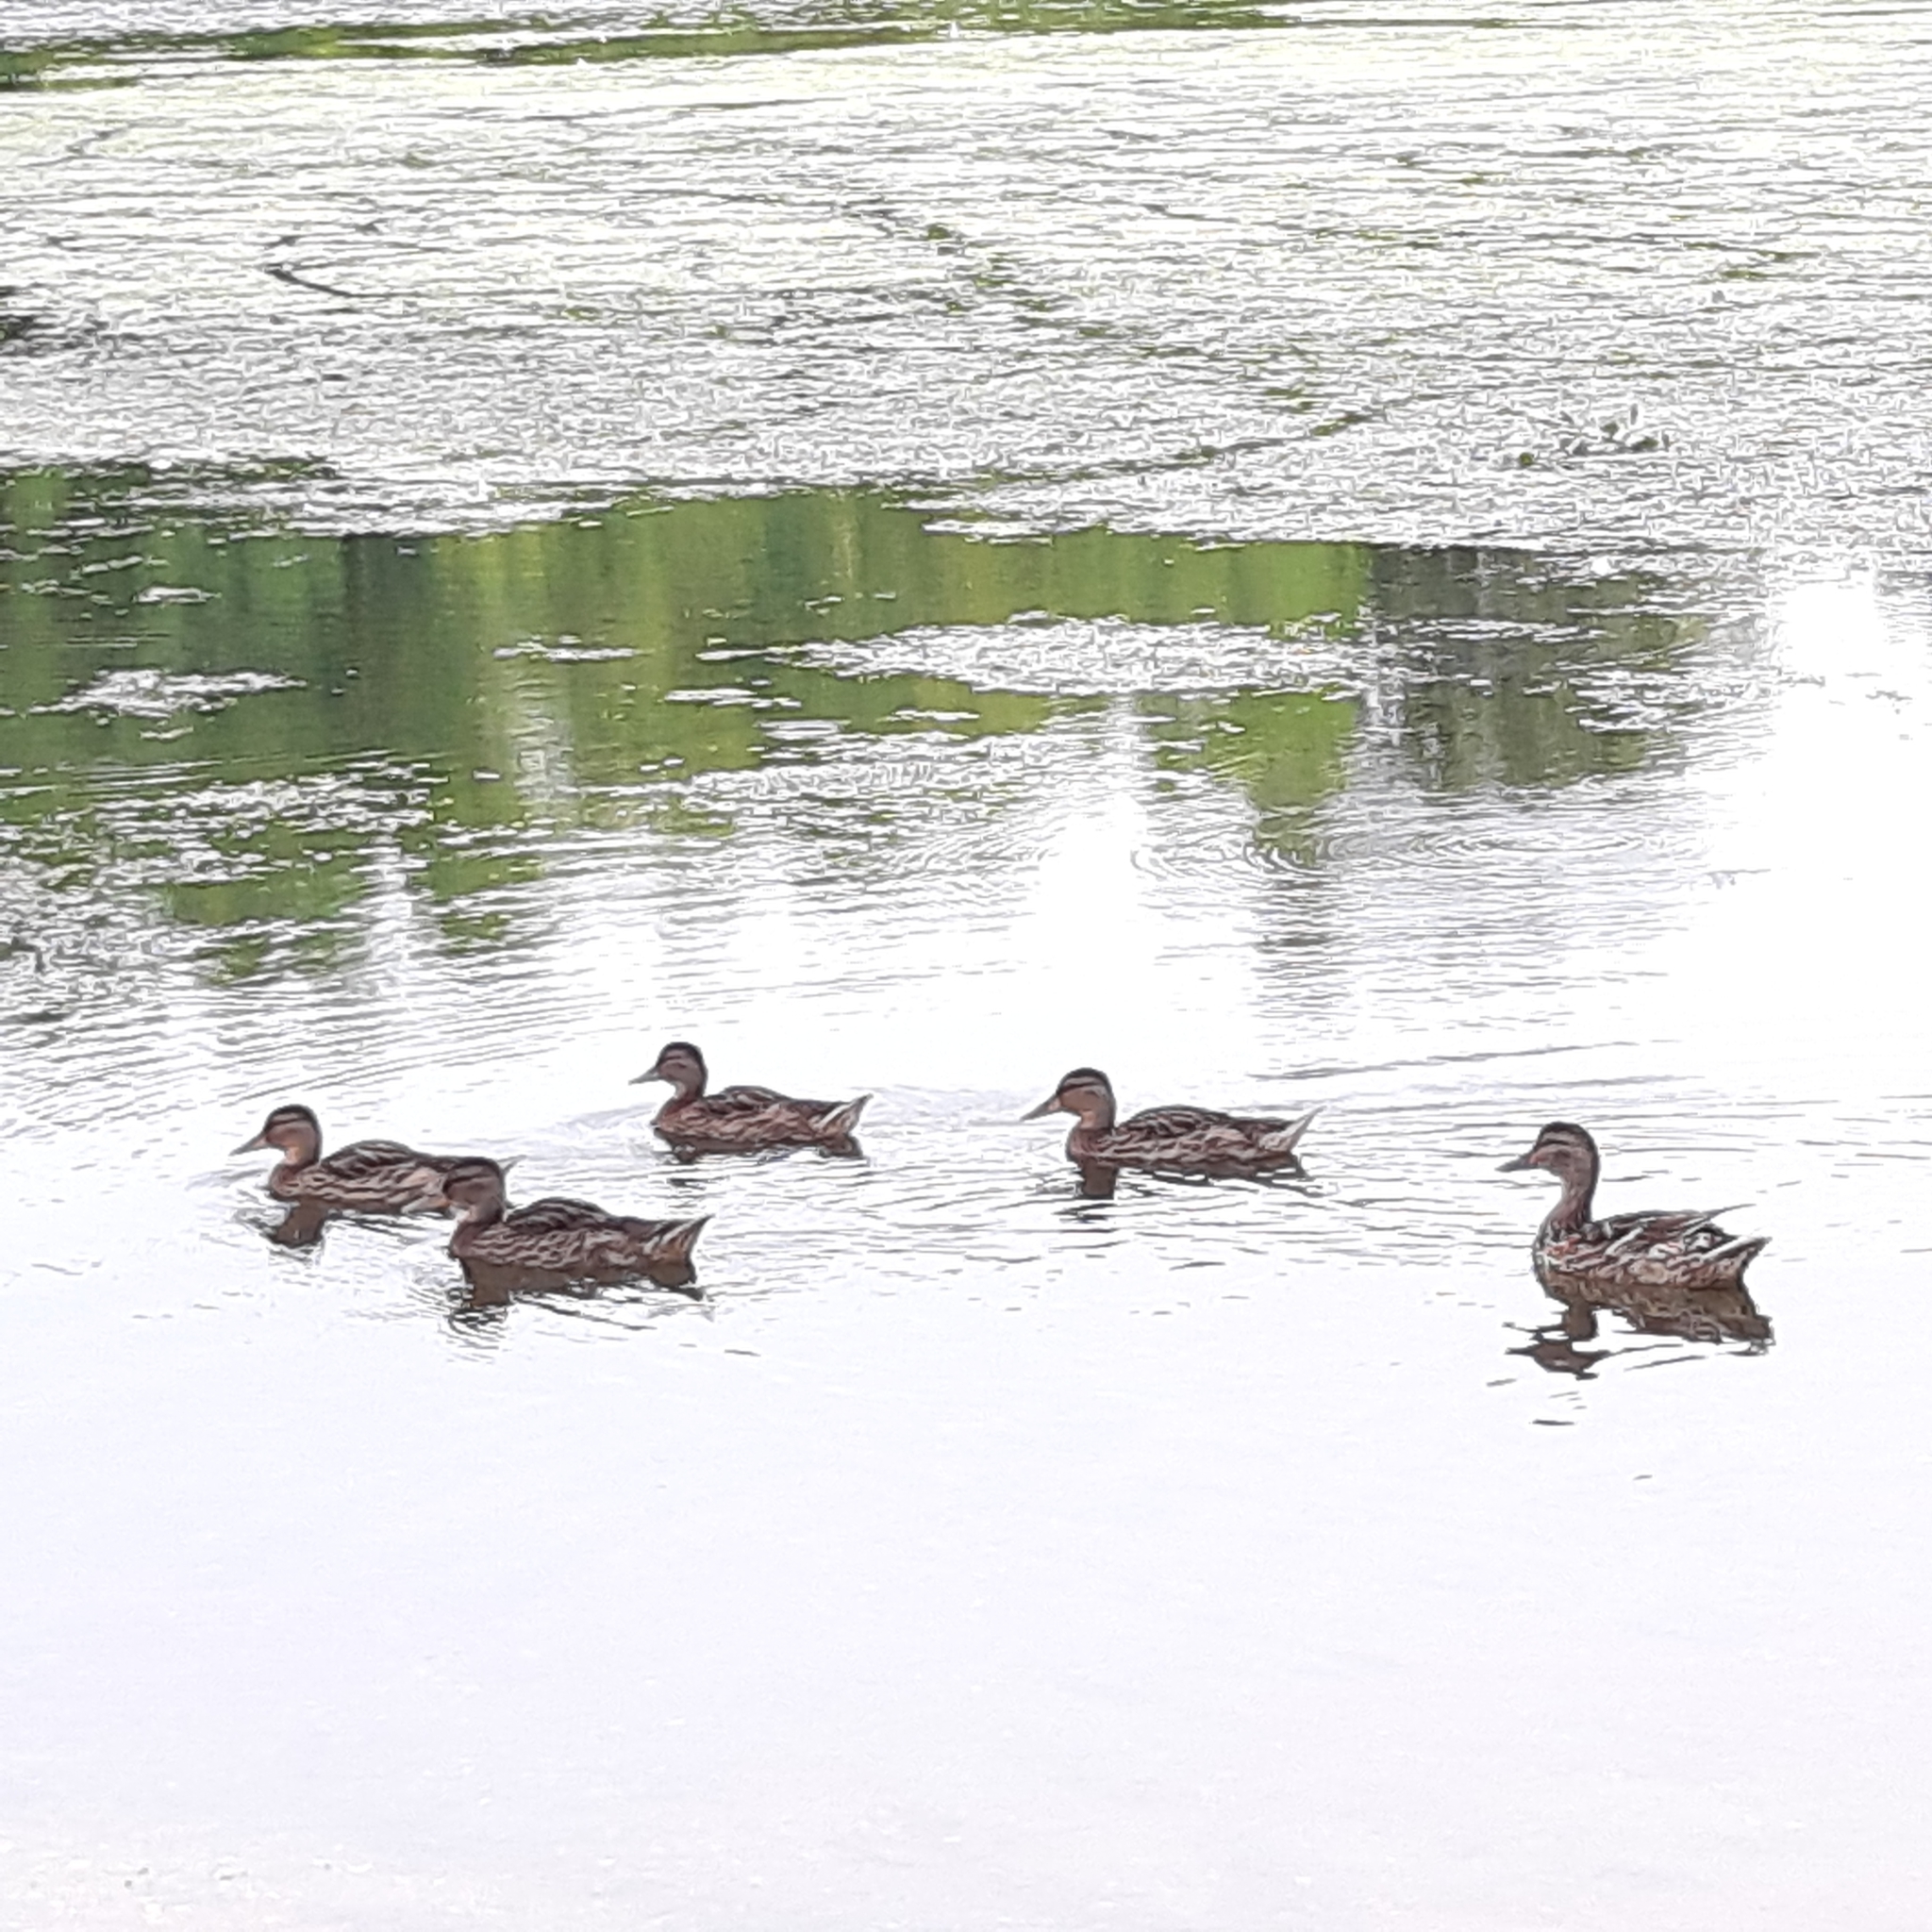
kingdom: Animalia
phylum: Chordata
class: Aves
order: Anseriformes
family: Anatidae
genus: Anas
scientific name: Anas platyrhynchos
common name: Mallard
